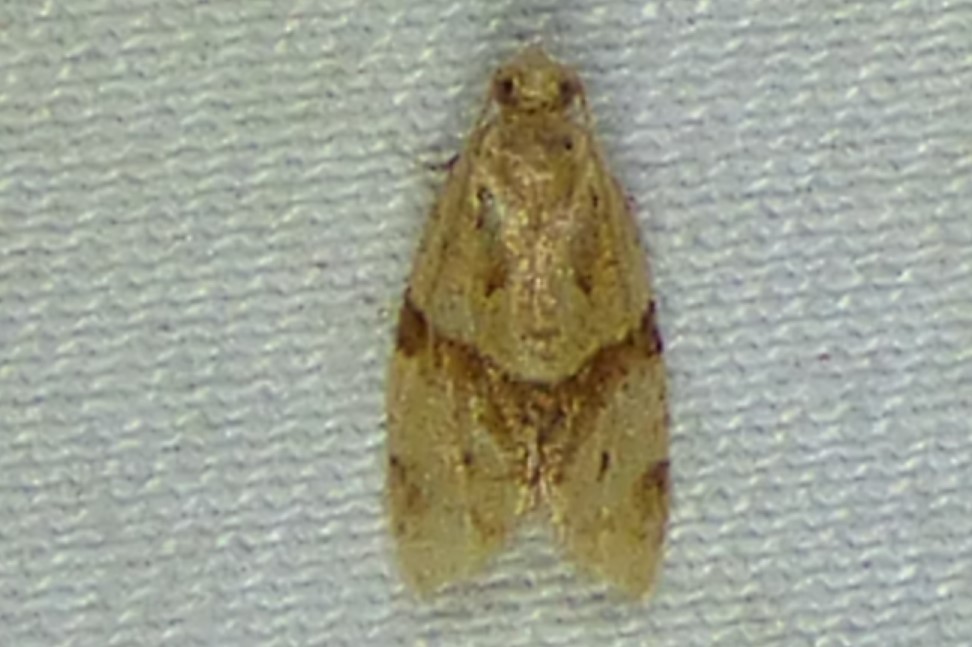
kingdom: Animalia
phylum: Arthropoda
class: Insecta
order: Lepidoptera
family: Tortricidae
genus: Clepsis
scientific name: Clepsis peritana
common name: Garden tortrix
